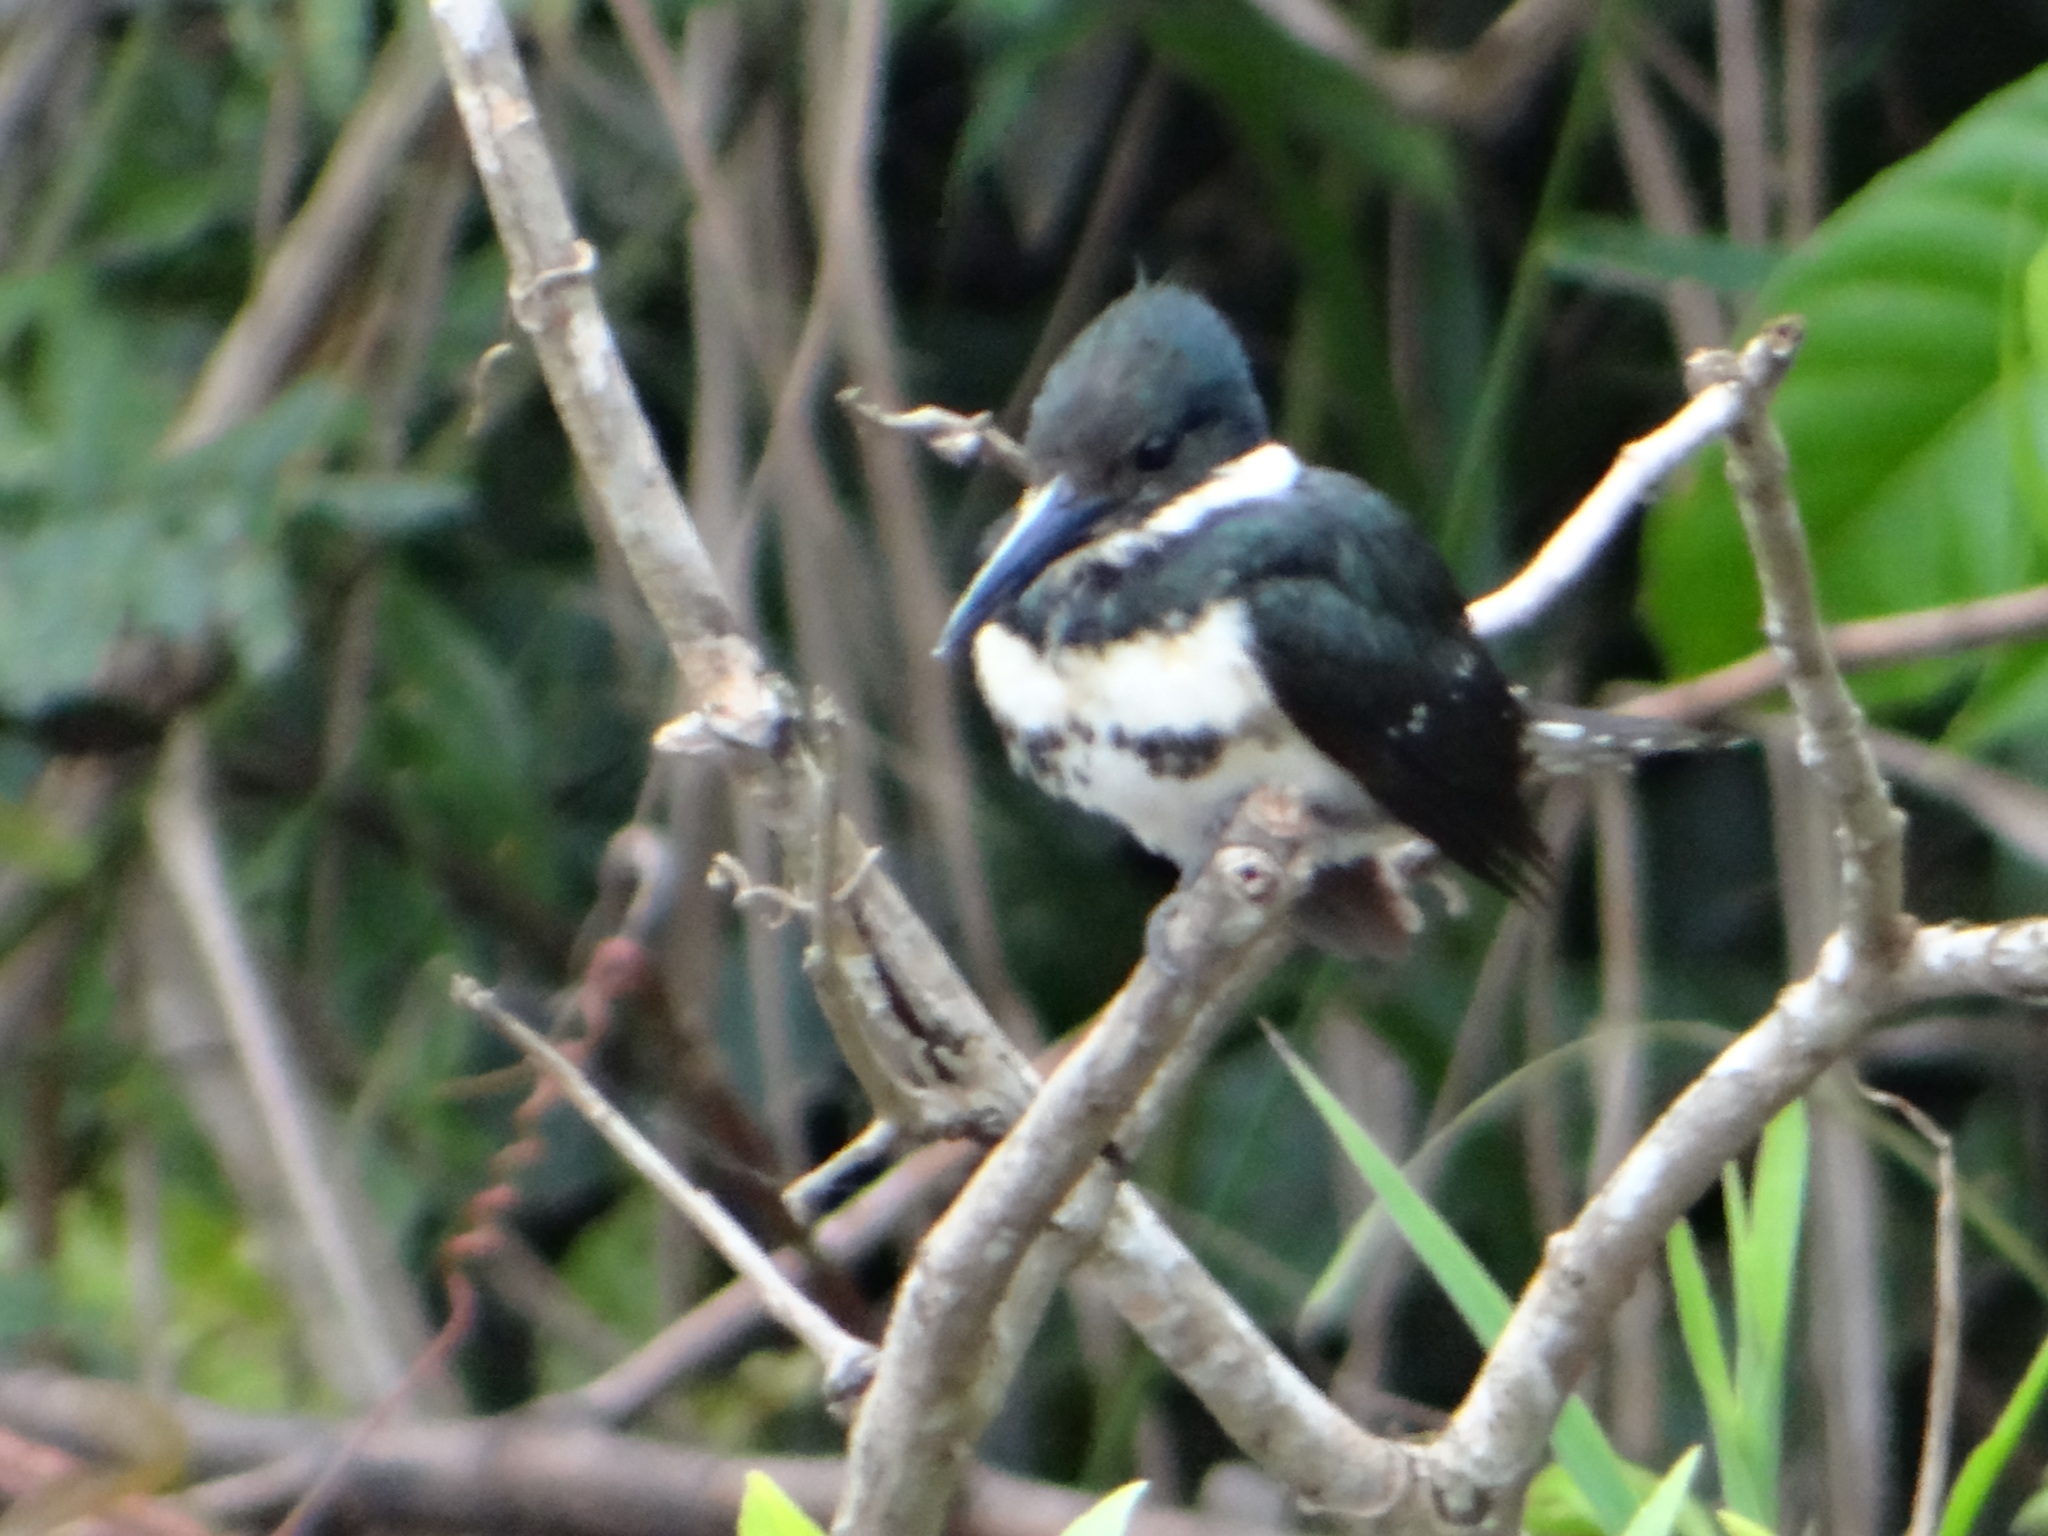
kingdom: Animalia
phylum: Chordata
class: Aves
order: Coraciiformes
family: Alcedinidae
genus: Chloroceryle
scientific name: Chloroceryle americana
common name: Green kingfisher
